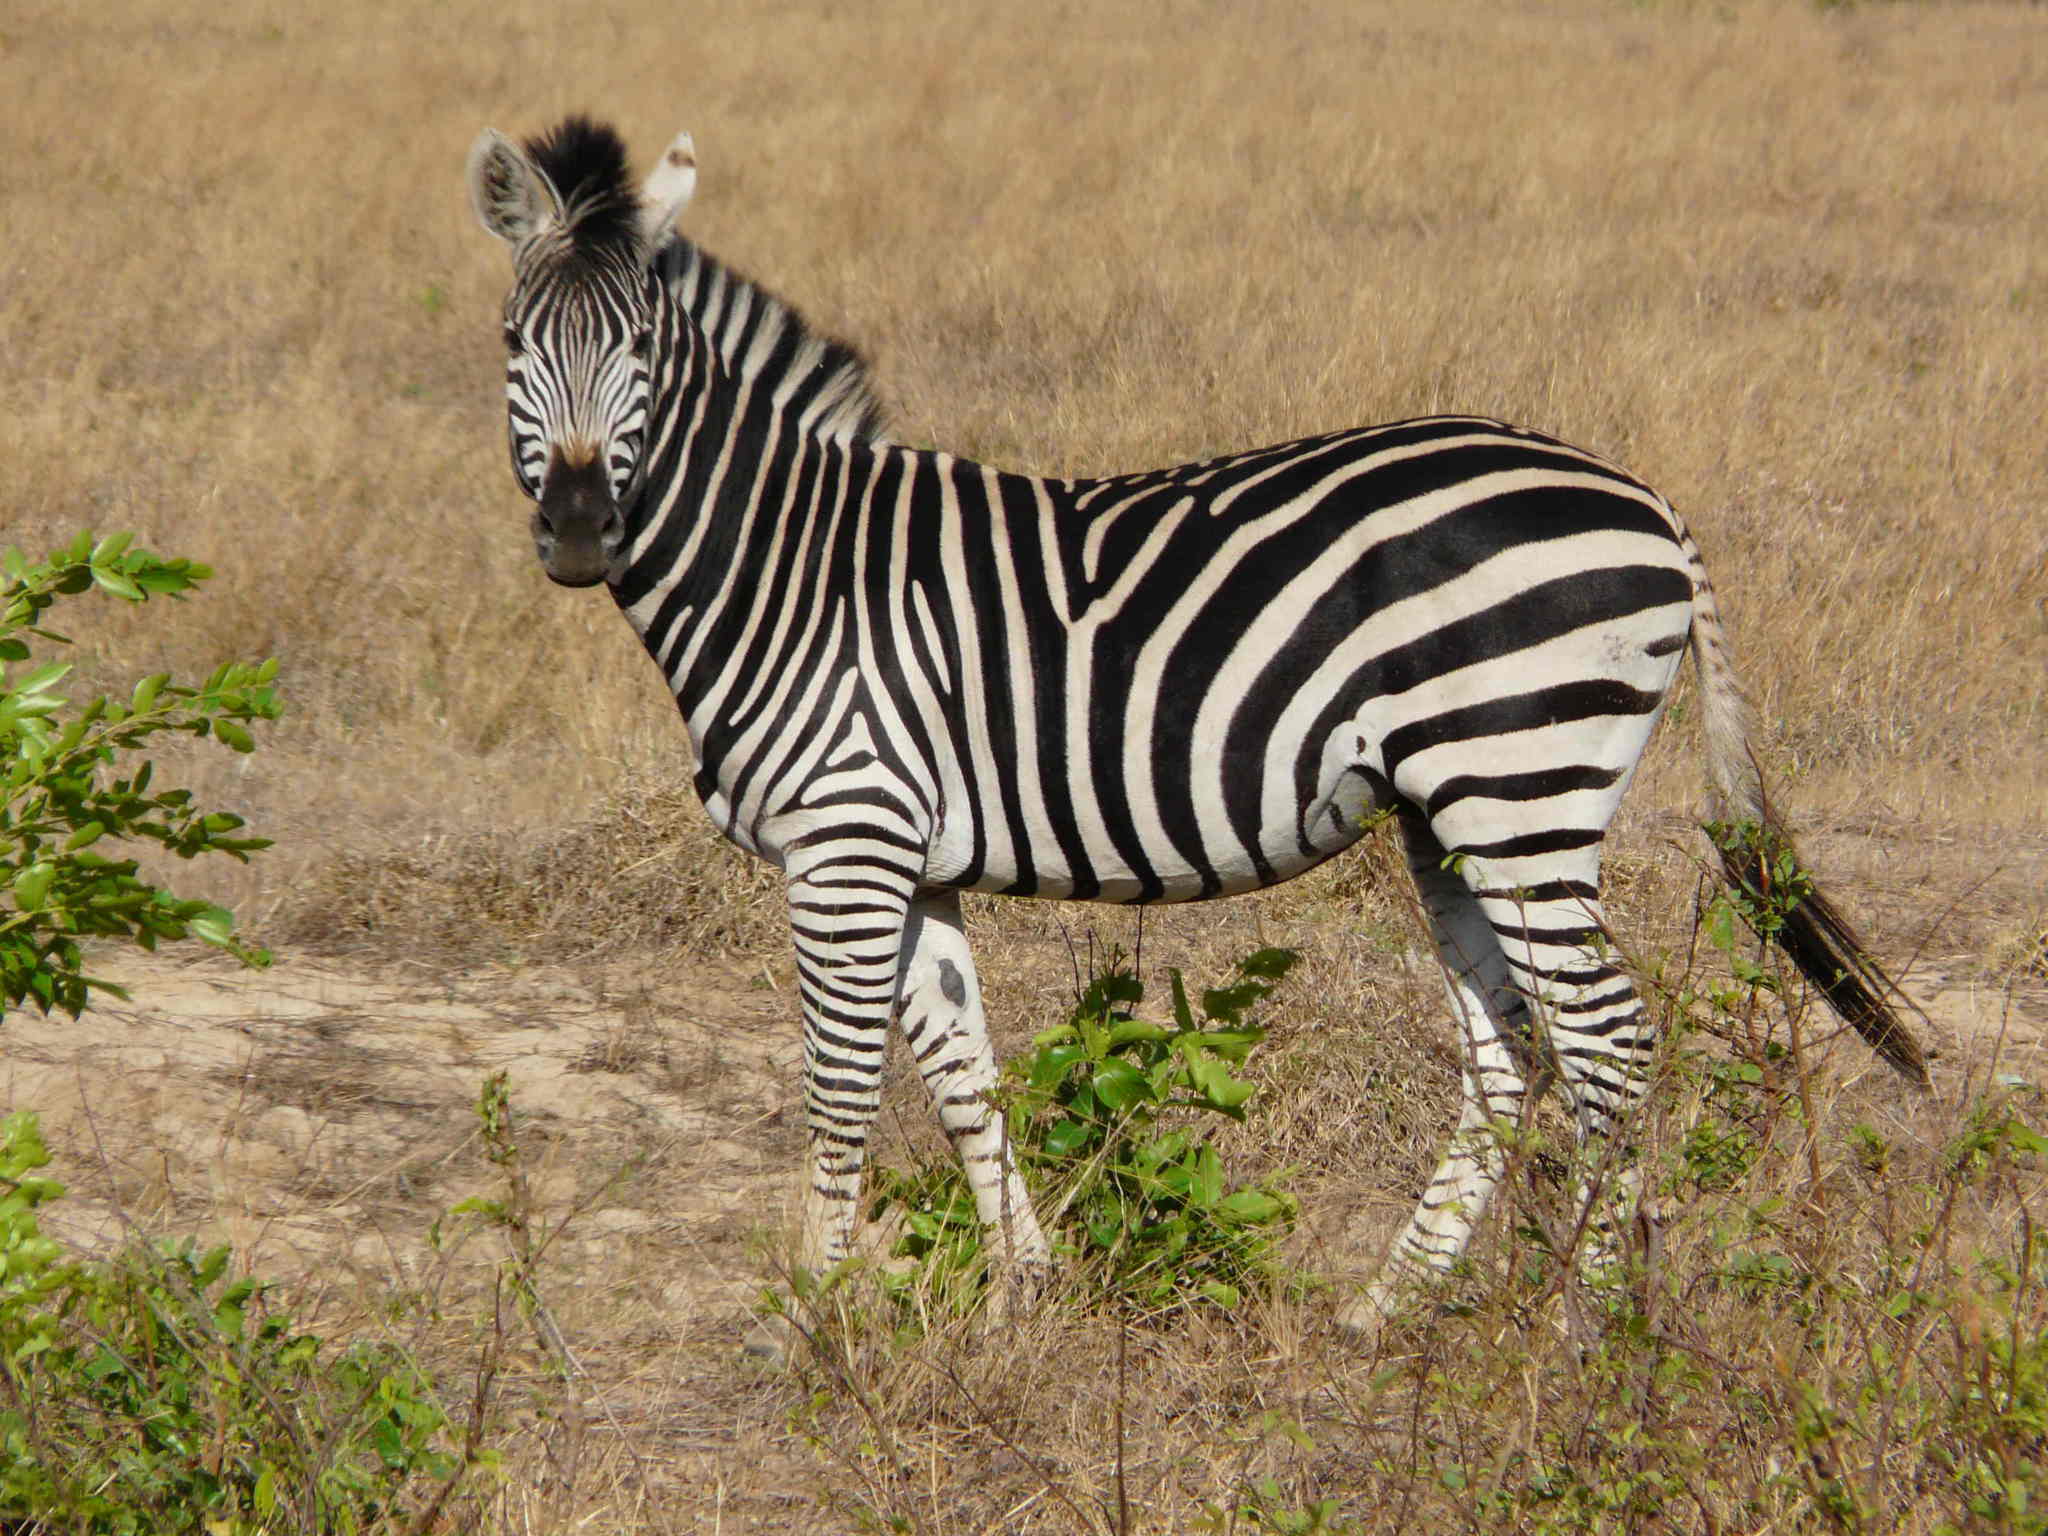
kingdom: Animalia
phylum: Chordata
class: Mammalia
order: Perissodactyla
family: Equidae
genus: Equus
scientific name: Equus quagga
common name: Plains zebra
